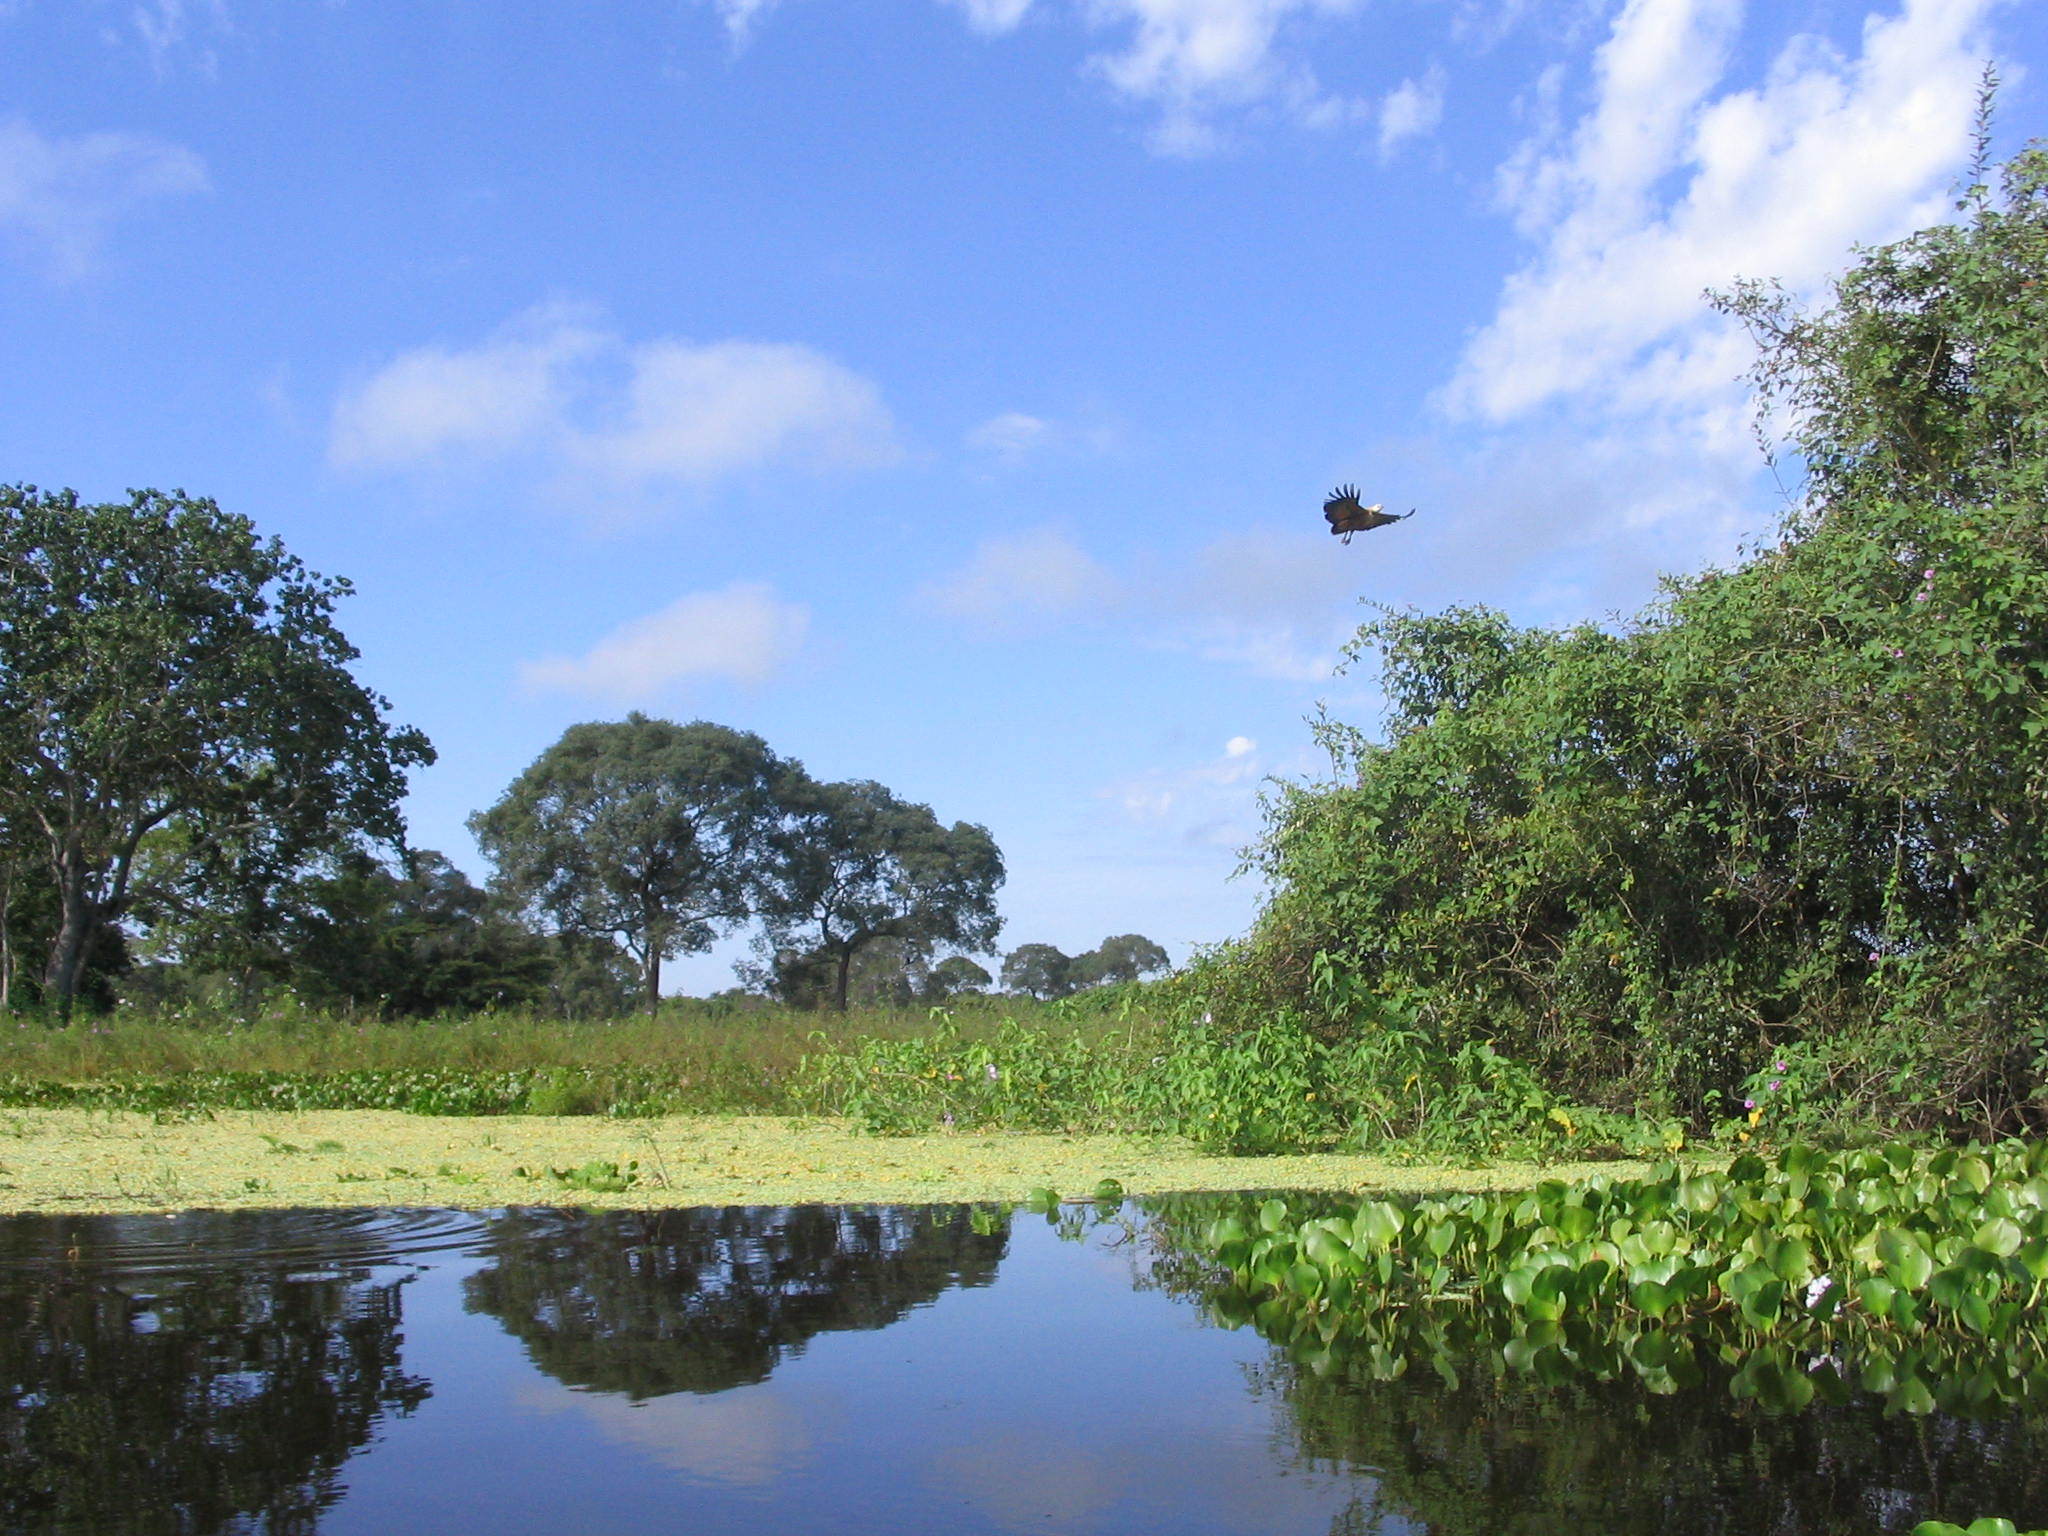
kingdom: Animalia
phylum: Chordata
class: Aves
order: Accipitriformes
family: Accipitridae
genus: Busarellus
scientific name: Busarellus nigricollis
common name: Black-collared hawk
